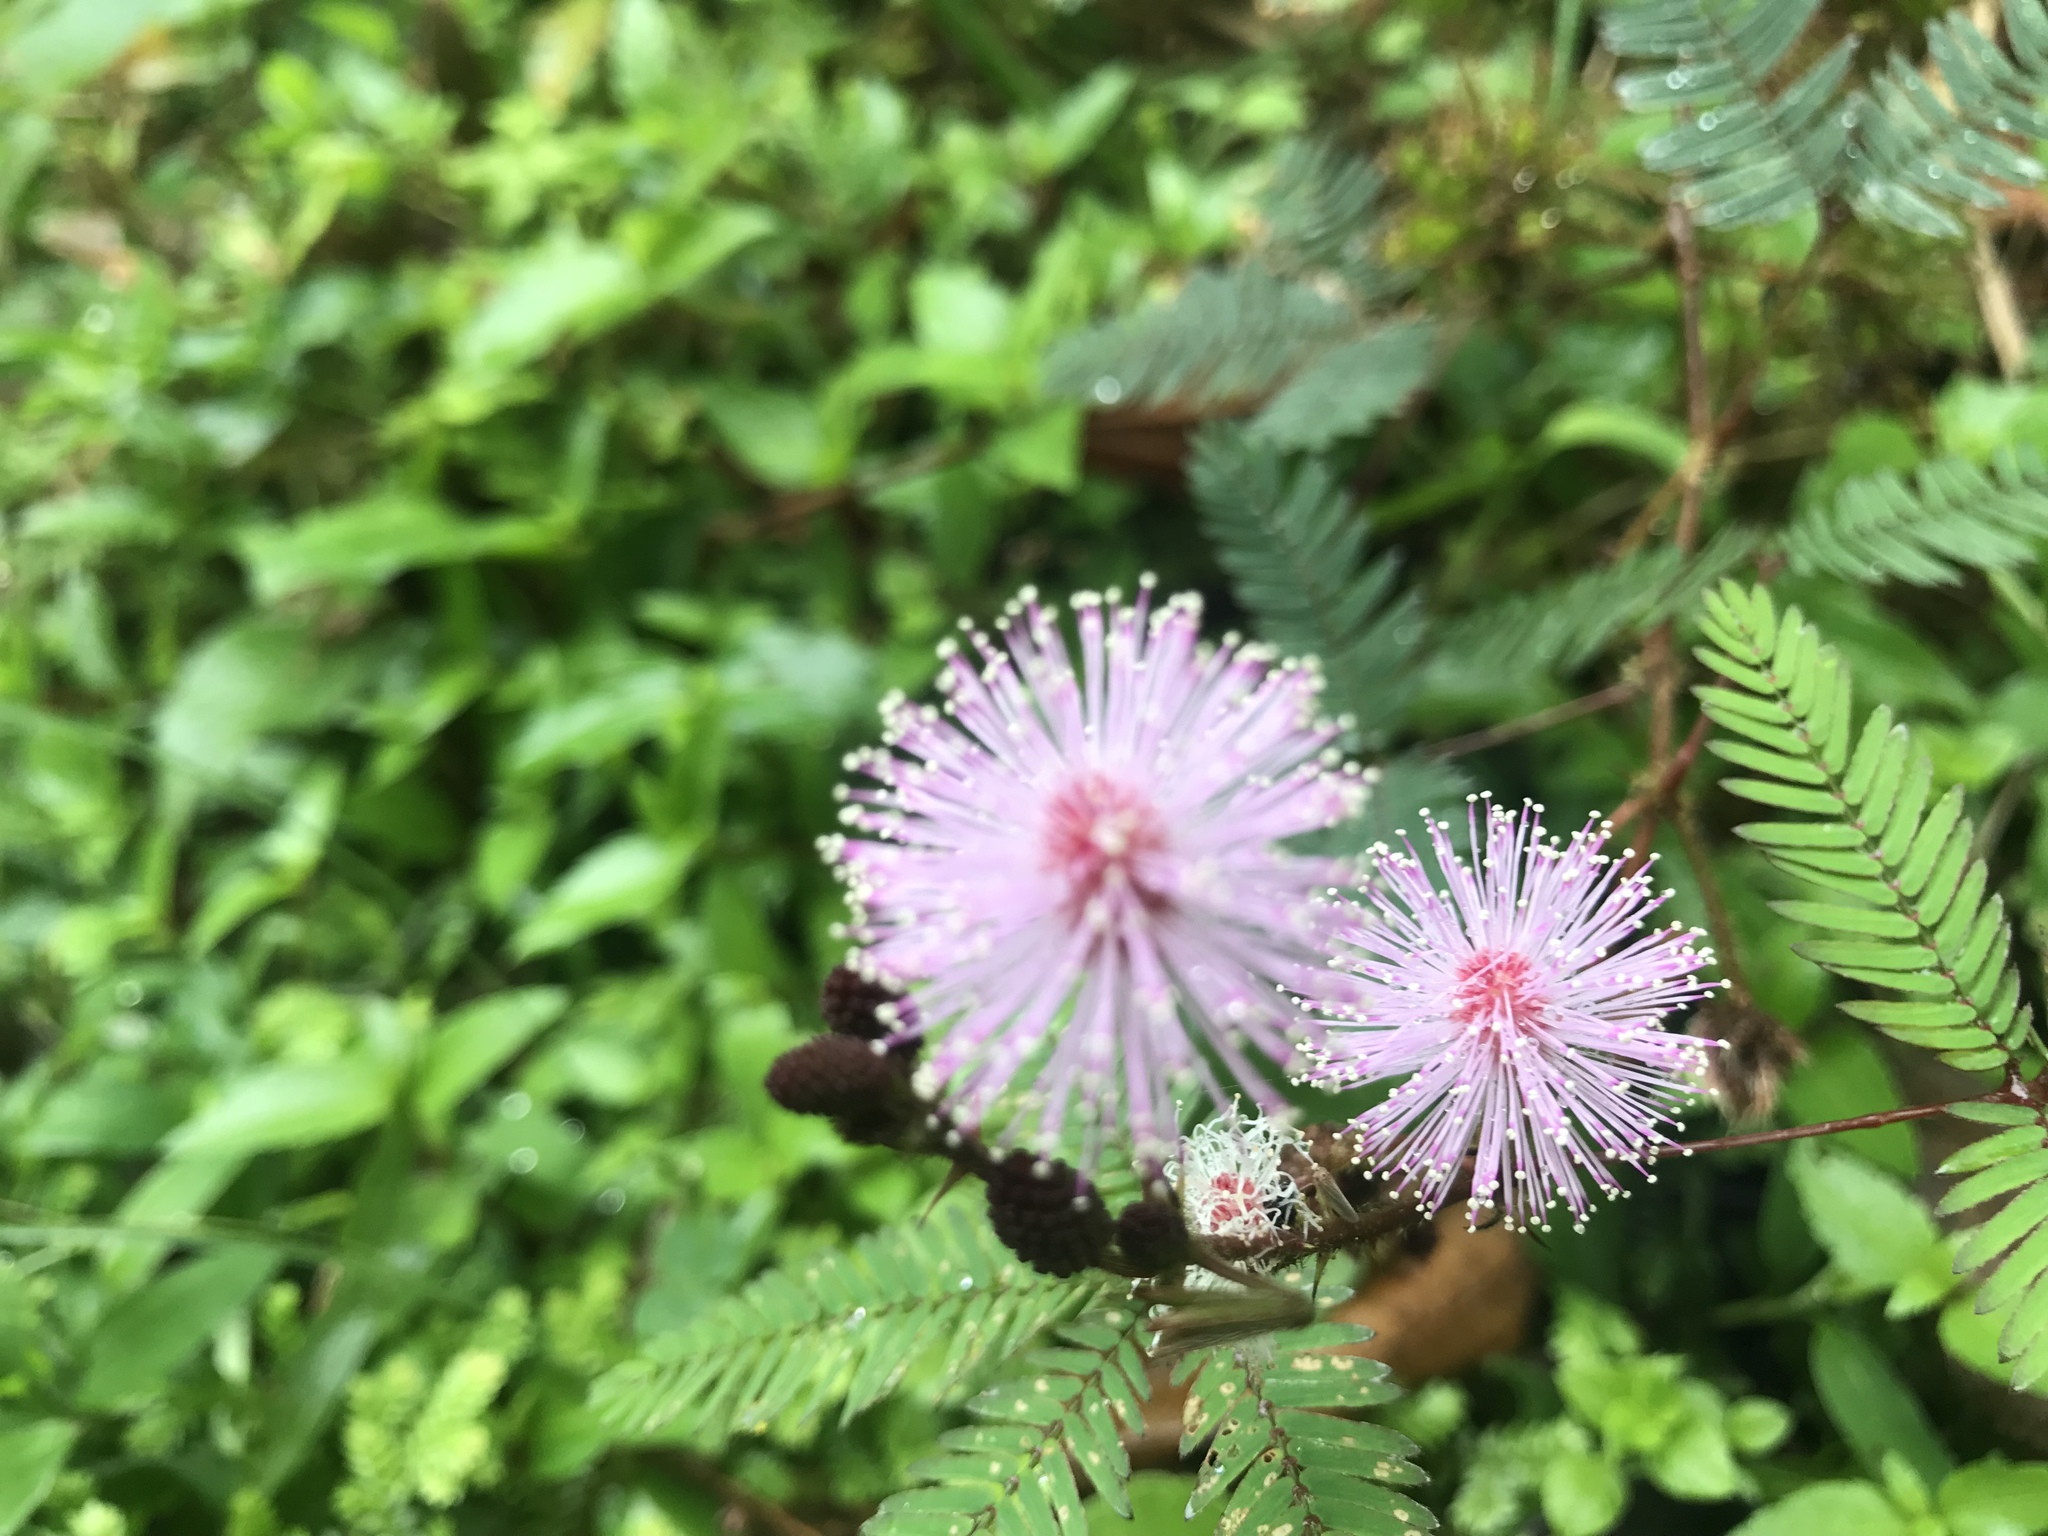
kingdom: Plantae
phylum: Tracheophyta
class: Magnoliopsida
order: Fabales
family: Fabaceae
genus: Mimosa
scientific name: Mimosa pudica
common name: Sensitive plant
